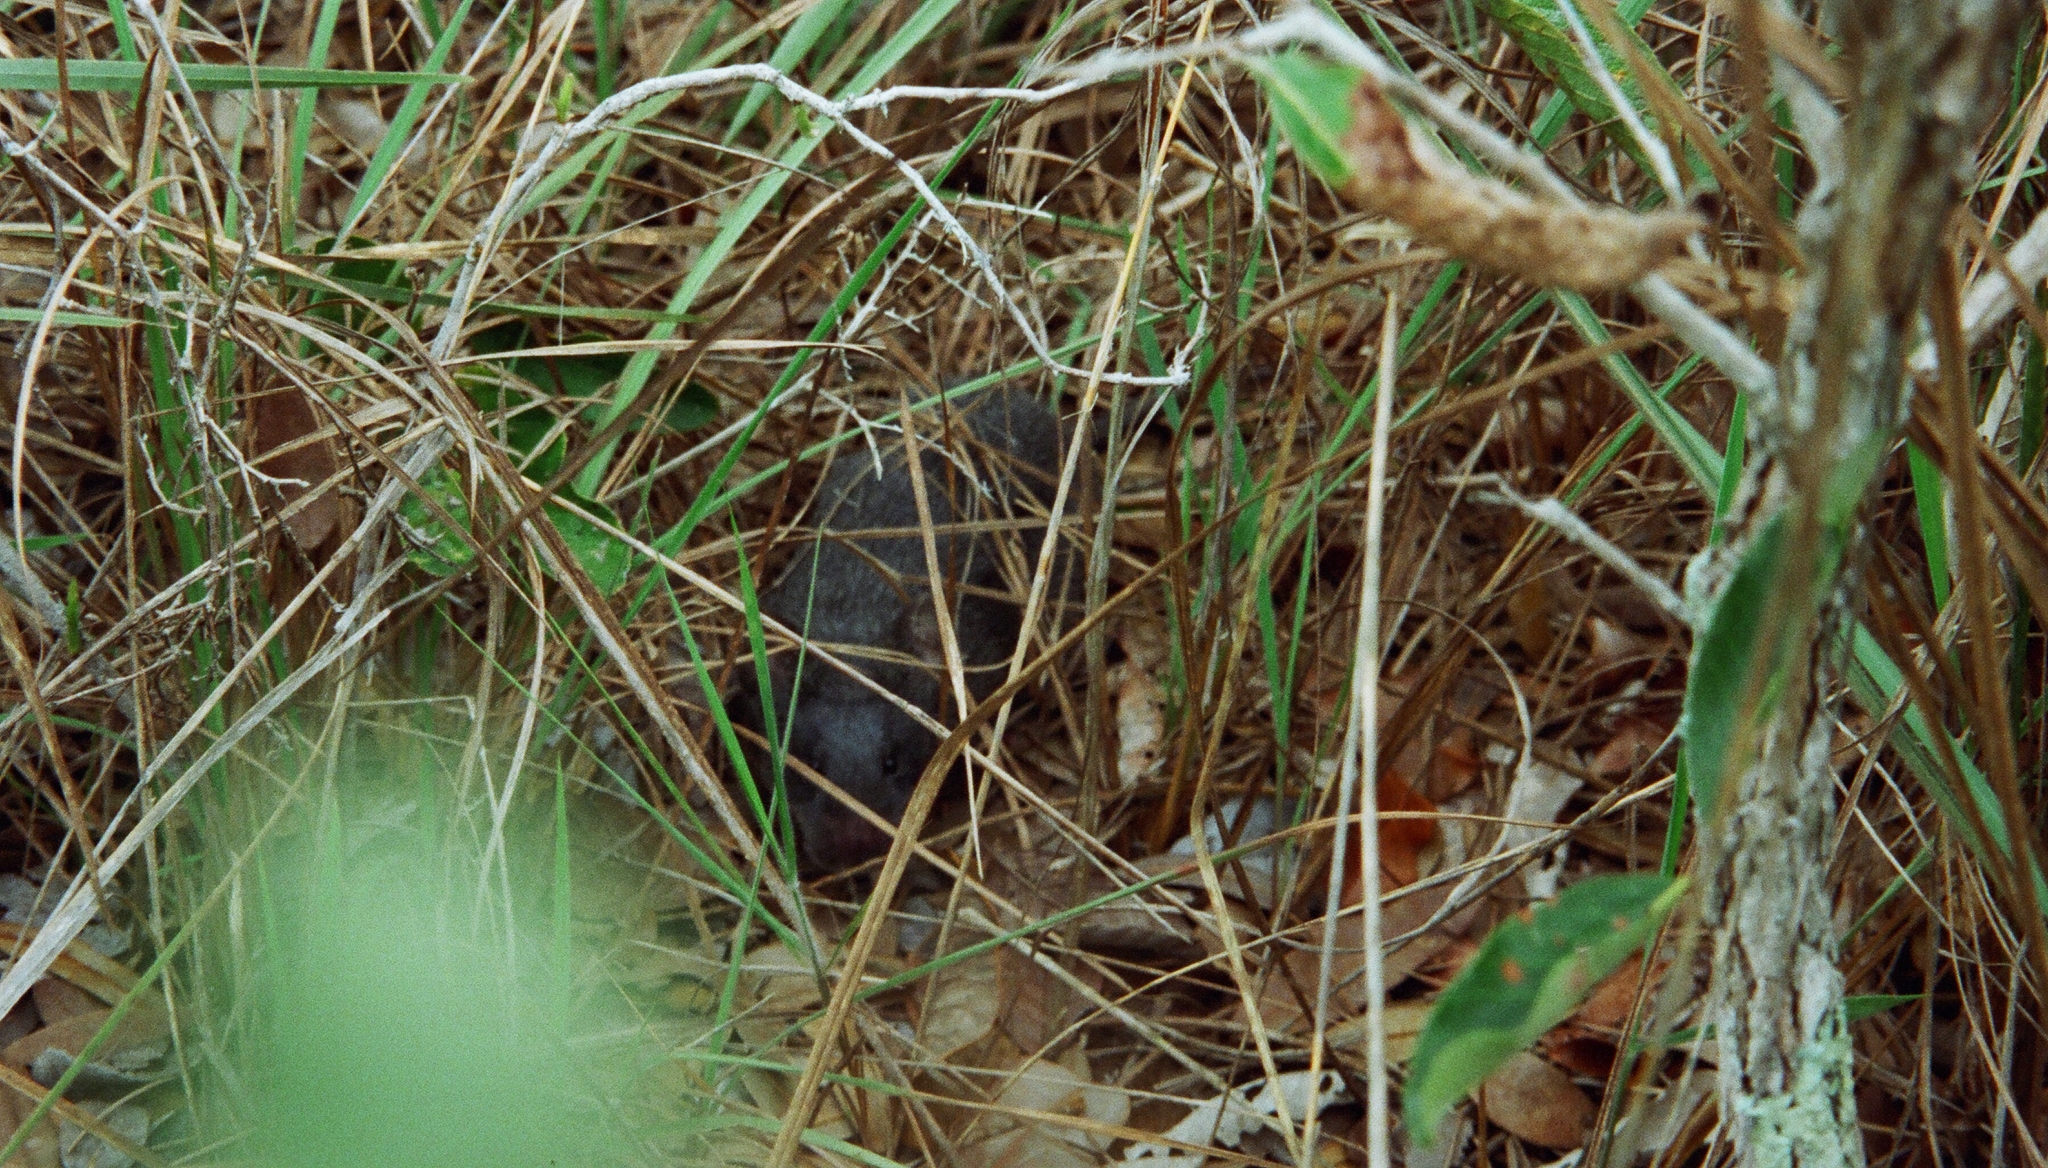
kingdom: Animalia
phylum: Chordata
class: Mammalia
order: Rodentia
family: Cricetidae
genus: Kunsia
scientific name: Kunsia tomentosus
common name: Woolly giant rat
